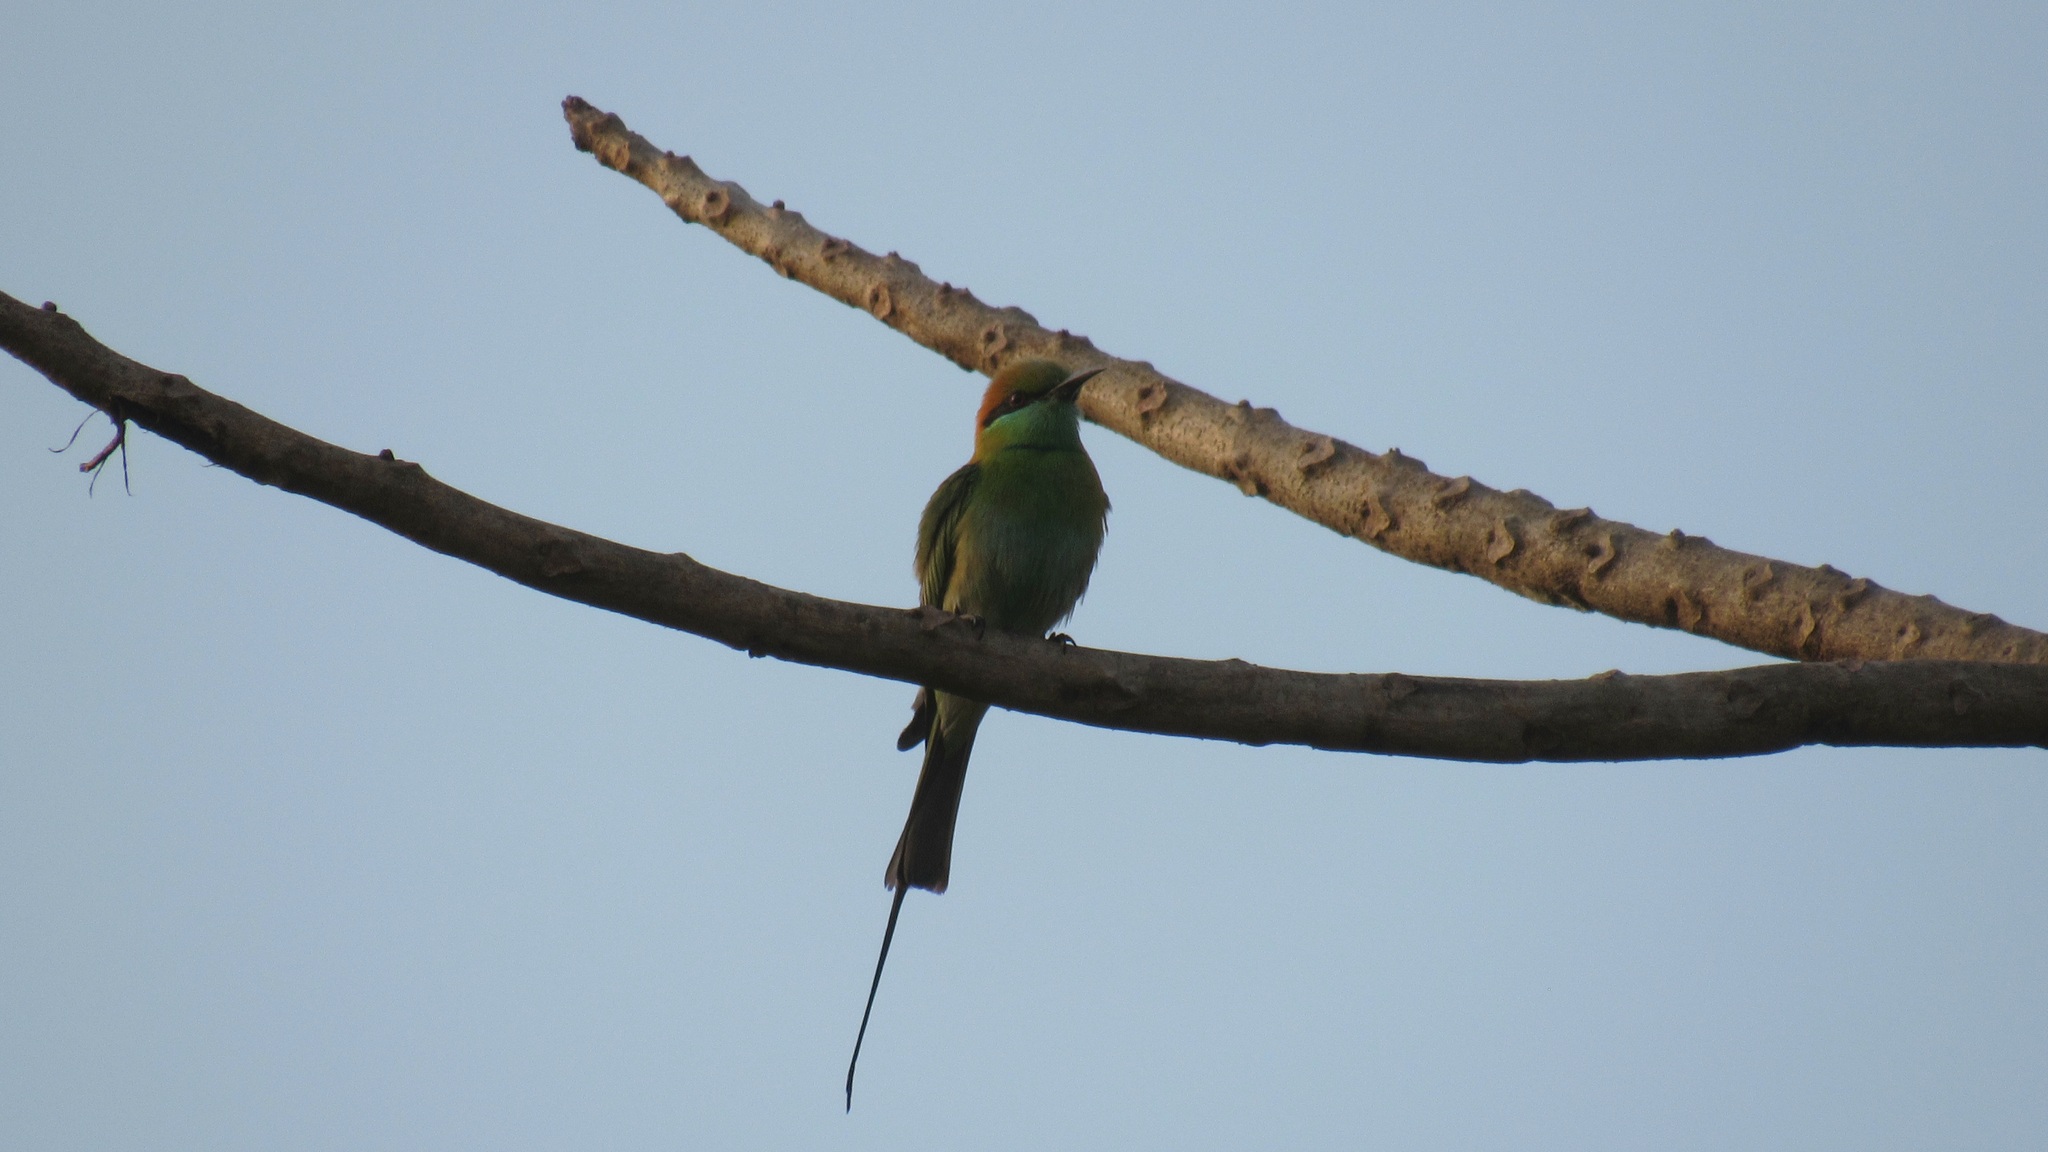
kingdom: Animalia
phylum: Chordata
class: Aves
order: Coraciiformes
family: Meropidae
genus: Merops
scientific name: Merops orientalis
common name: Green bee-eater
